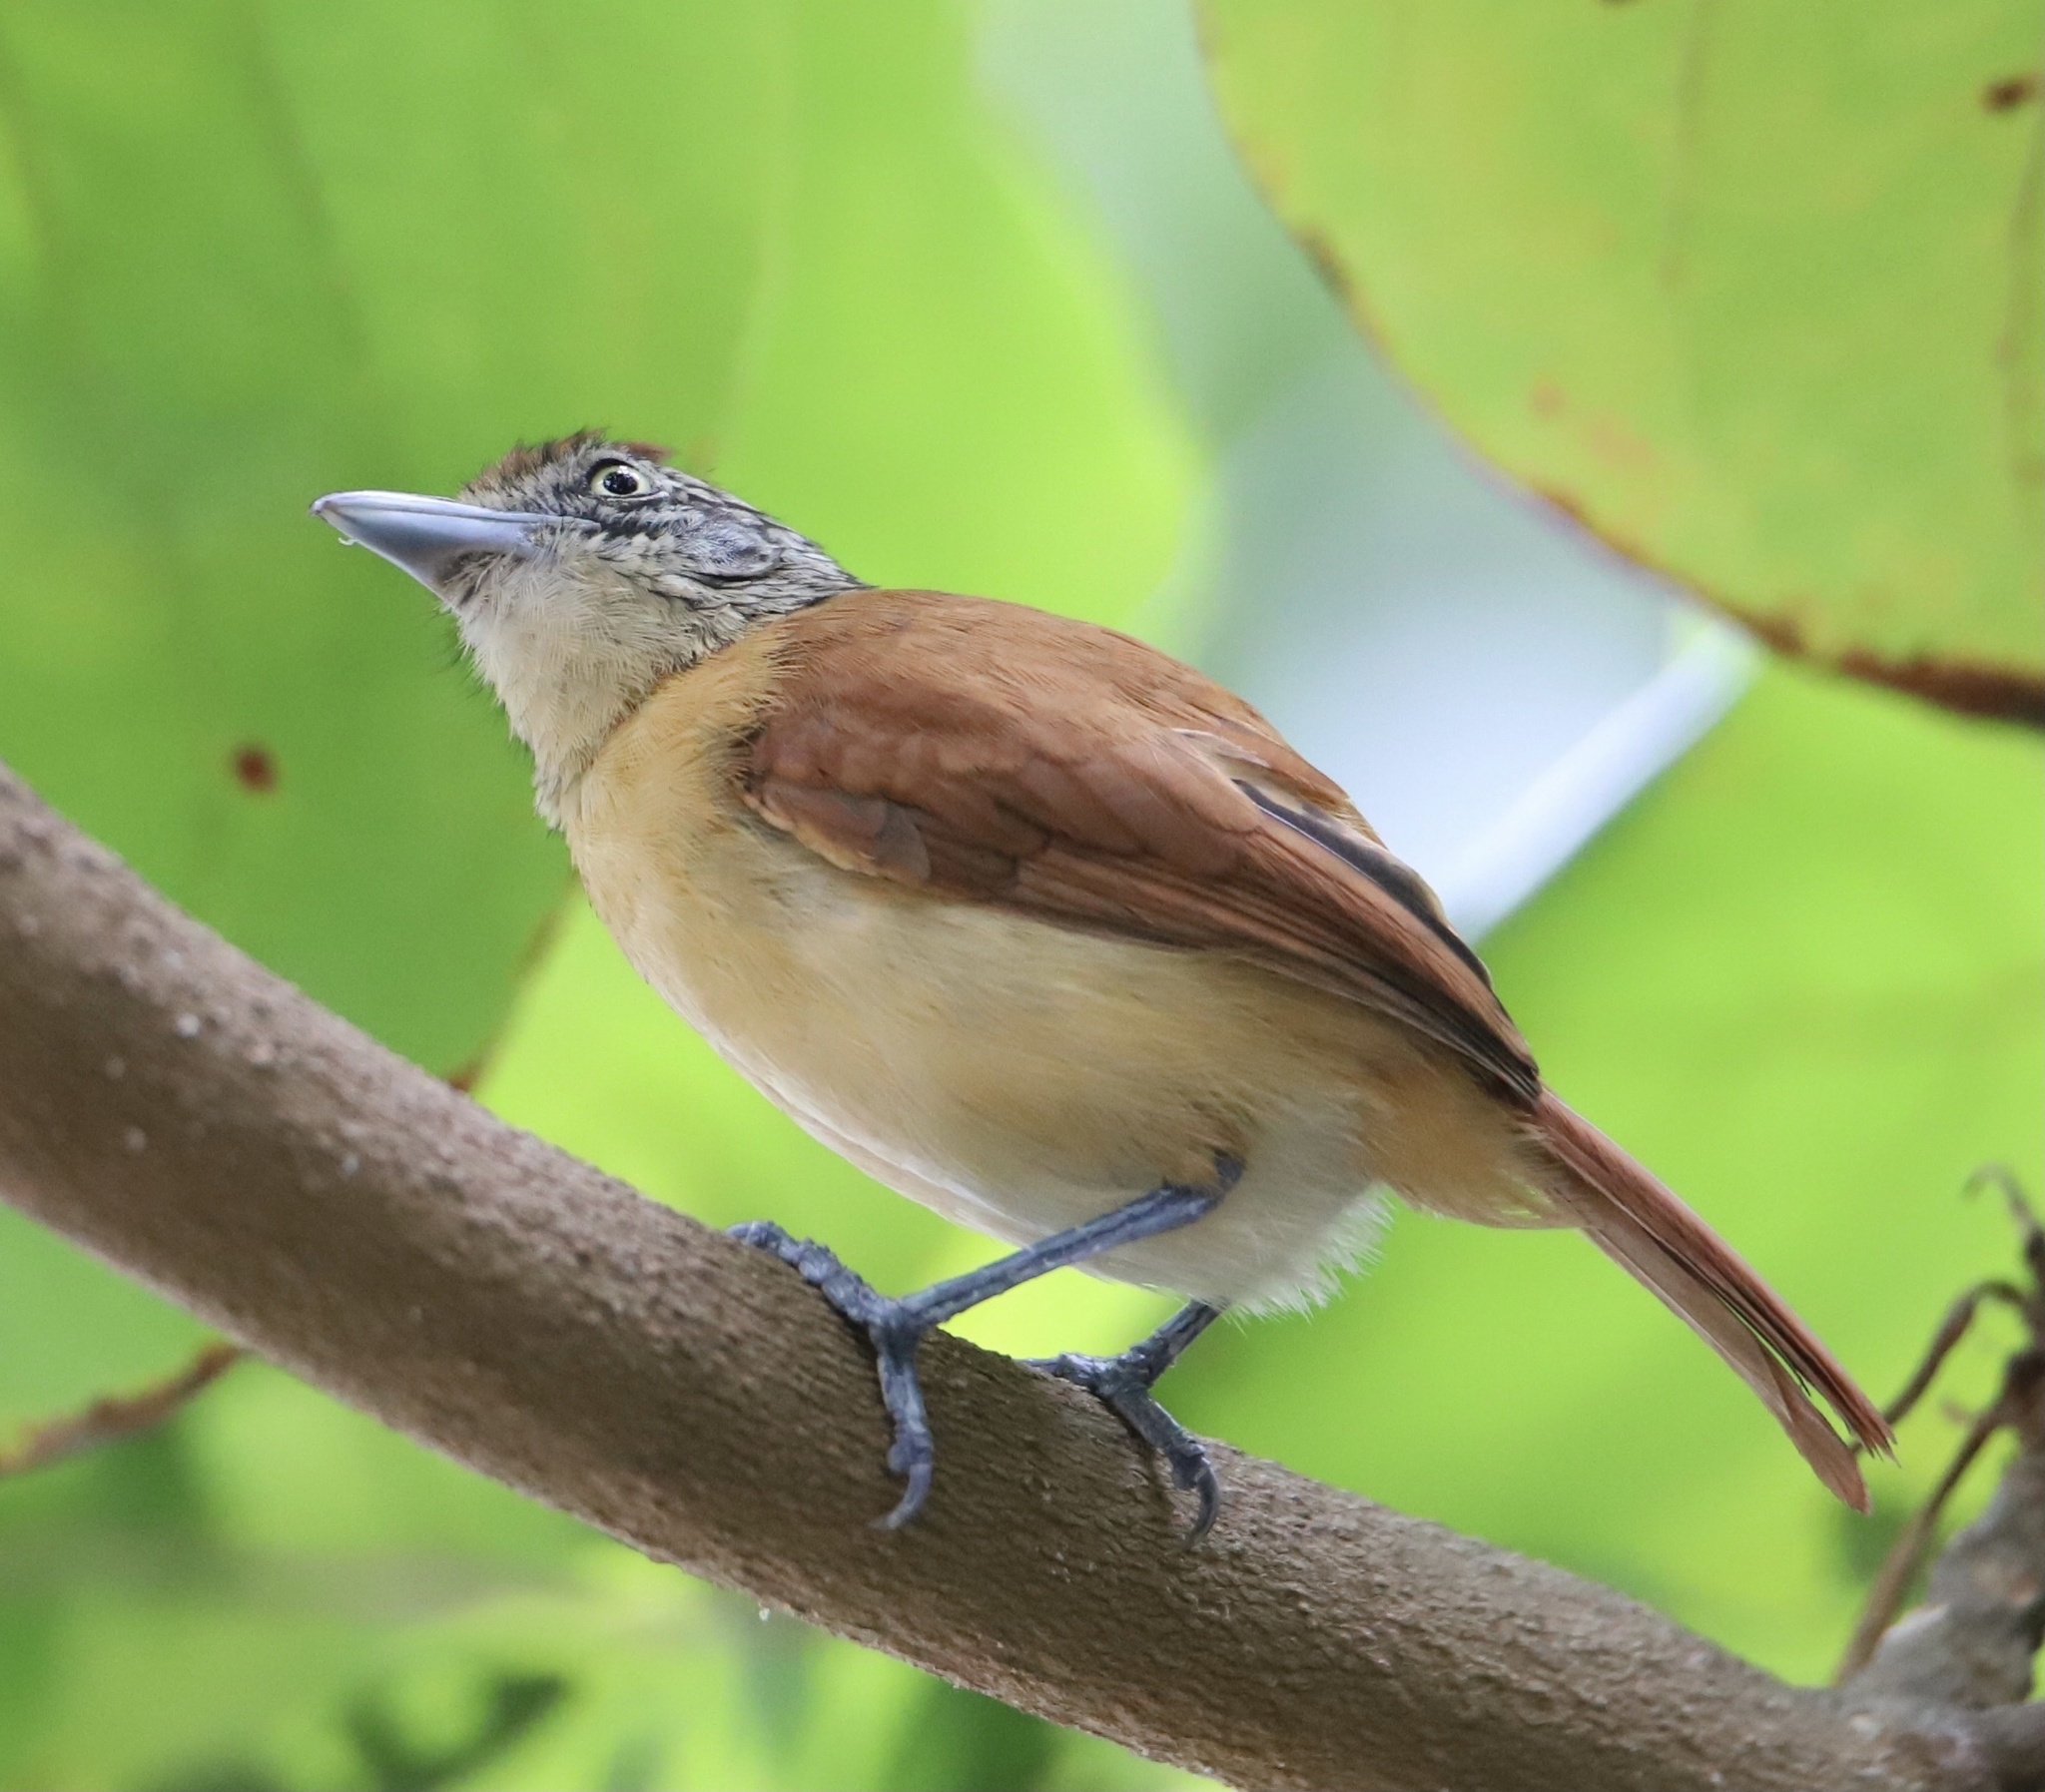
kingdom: Animalia
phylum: Chordata
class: Aves
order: Passeriformes
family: Thamnophilidae
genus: Thamnophilus
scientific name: Thamnophilus doliatus
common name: Barred antshrike
